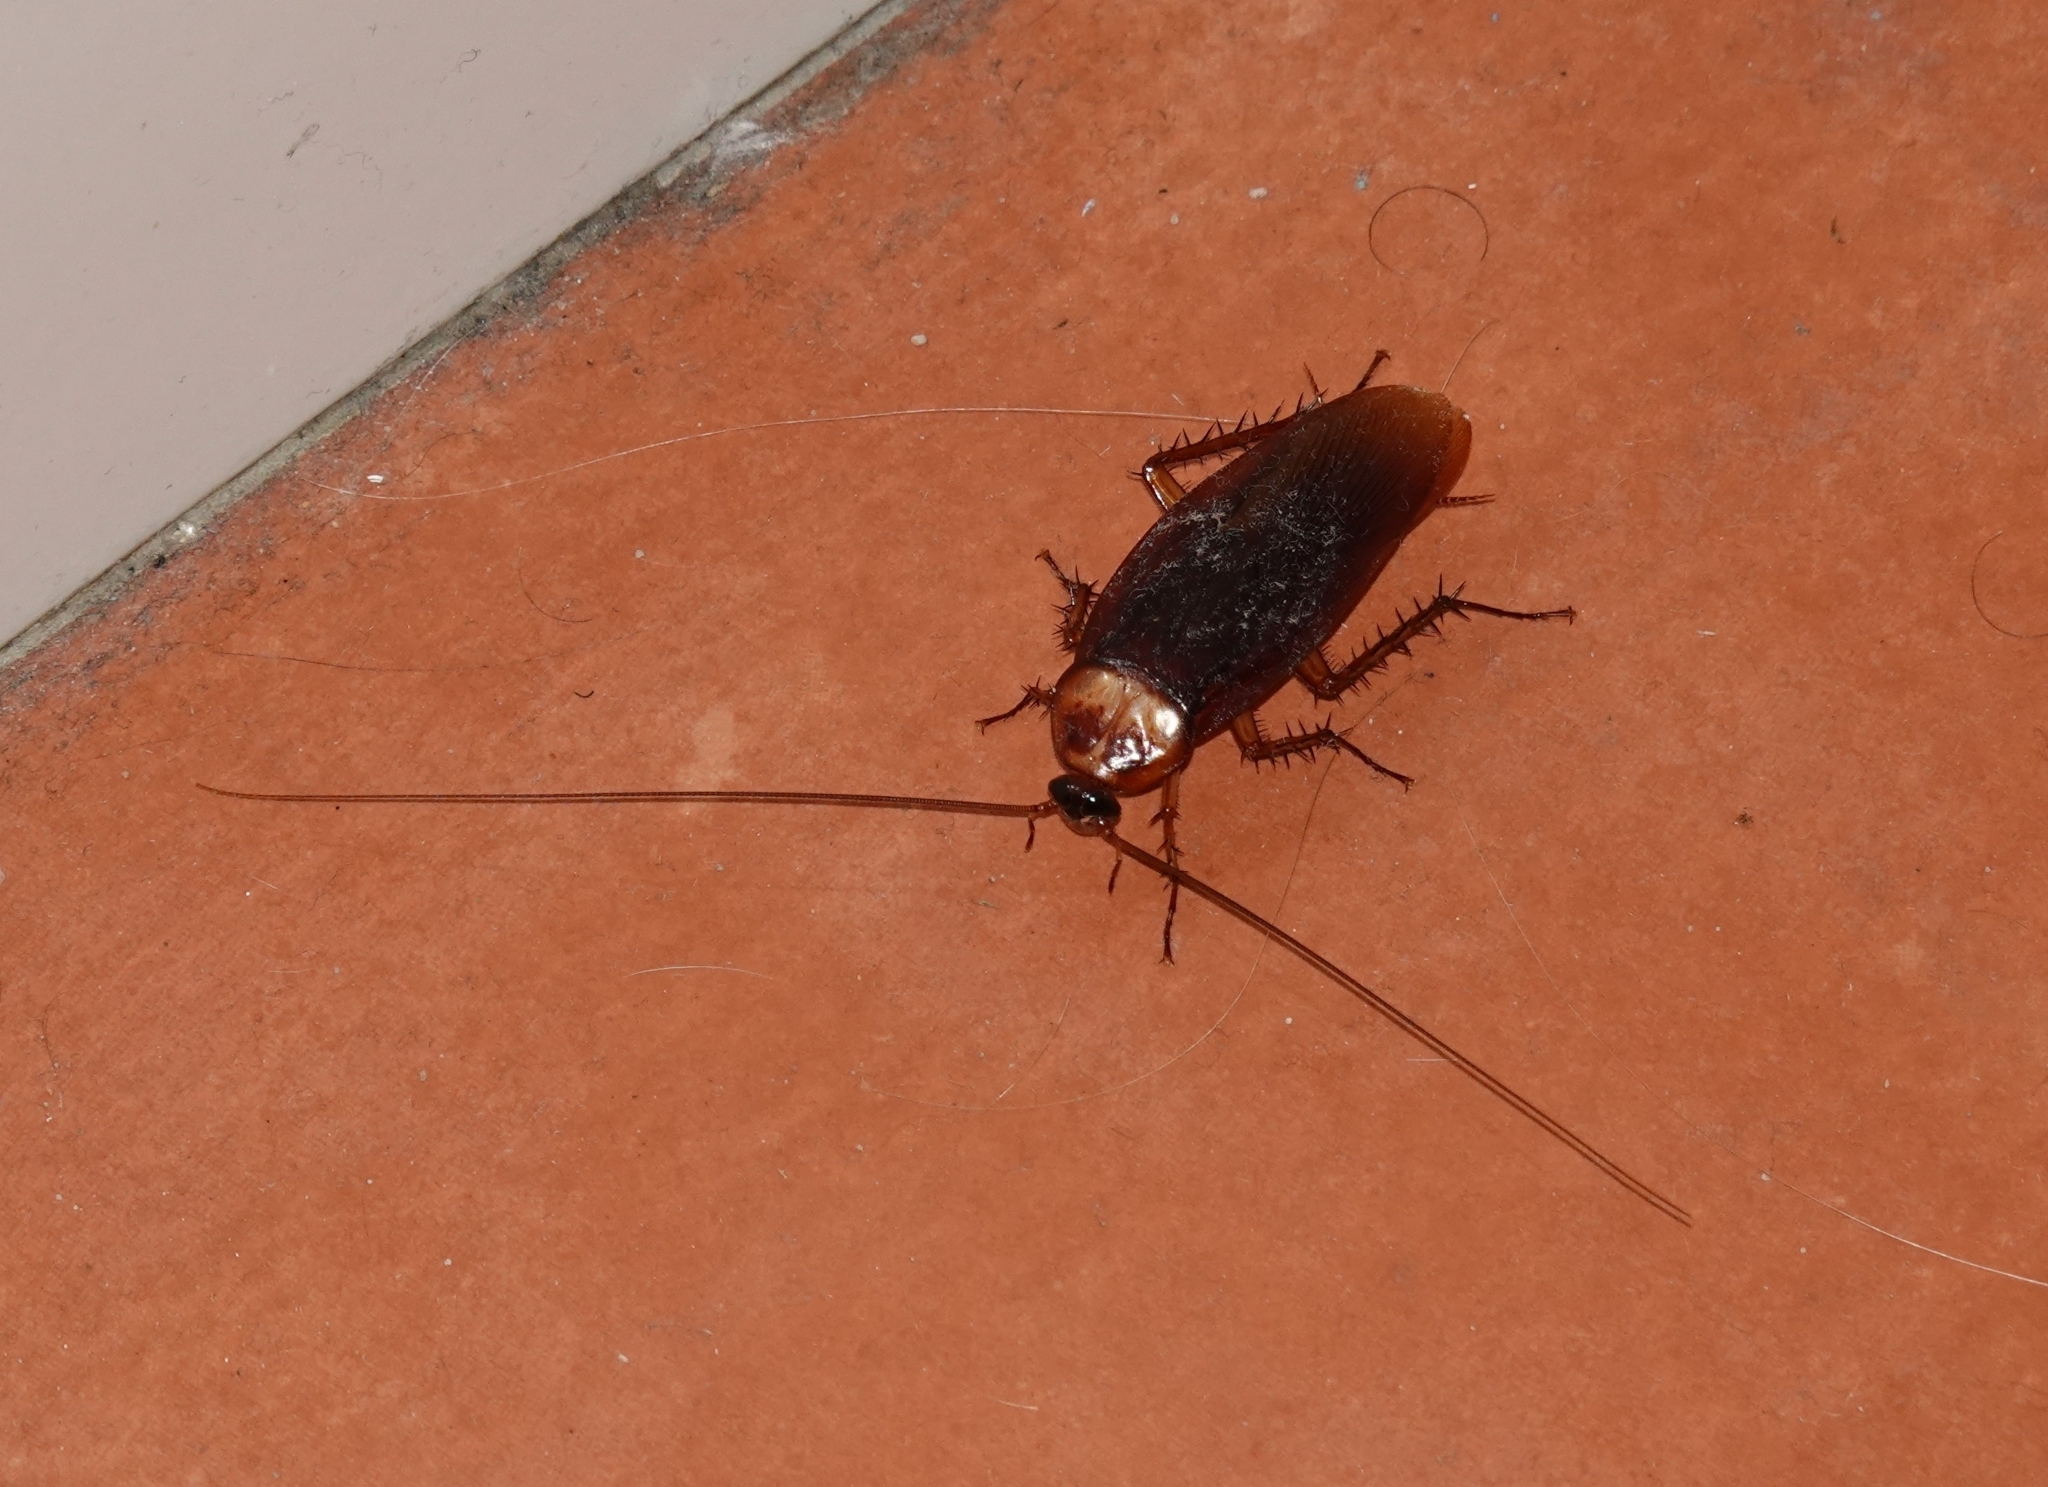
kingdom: Animalia
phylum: Arthropoda
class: Insecta
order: Blattodea
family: Blattidae
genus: Periplaneta
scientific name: Periplaneta americana
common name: American cockroach
